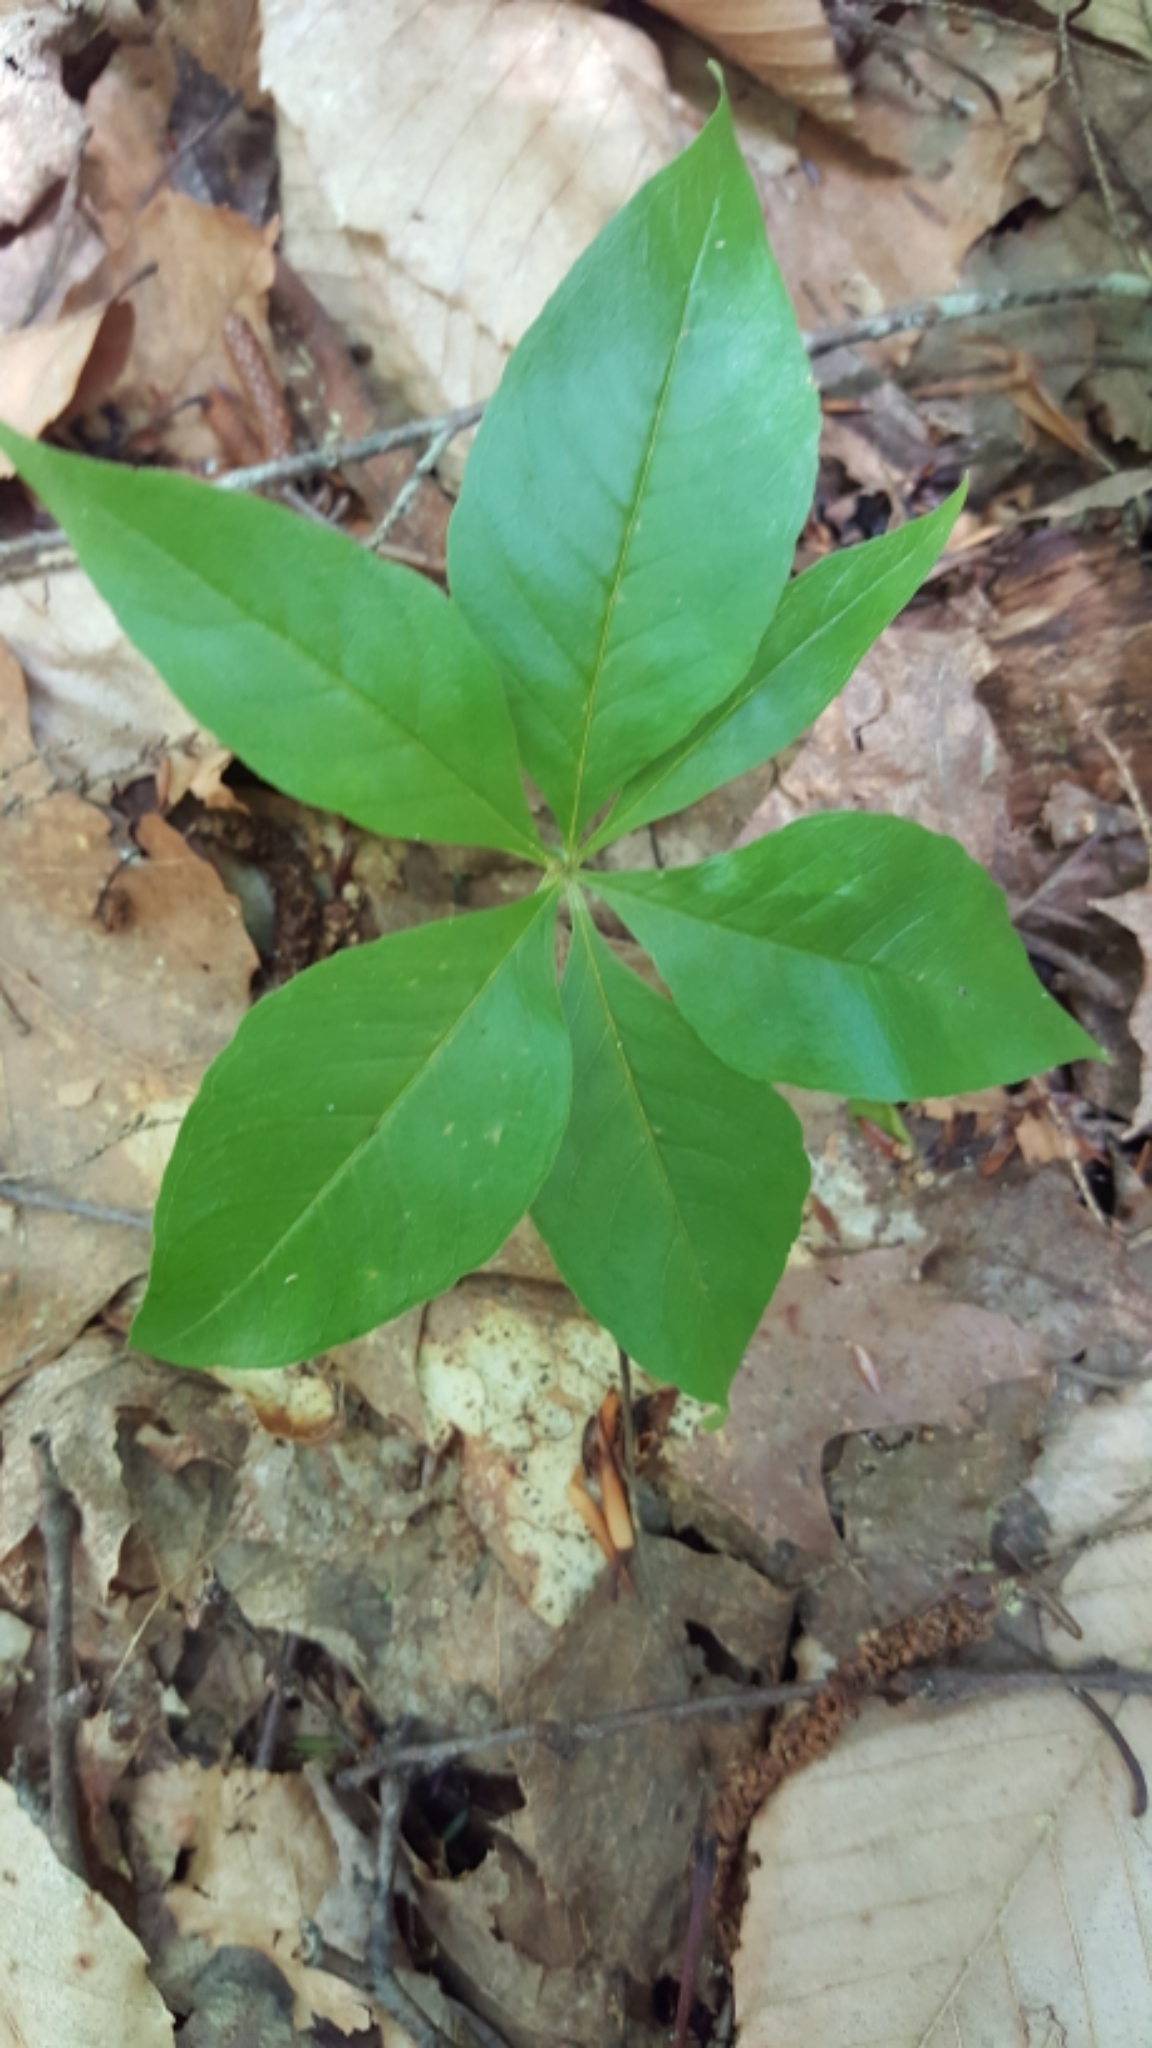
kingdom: Plantae
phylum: Tracheophyta
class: Magnoliopsida
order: Ericales
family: Primulaceae
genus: Lysimachia
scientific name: Lysimachia borealis
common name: American starflower
